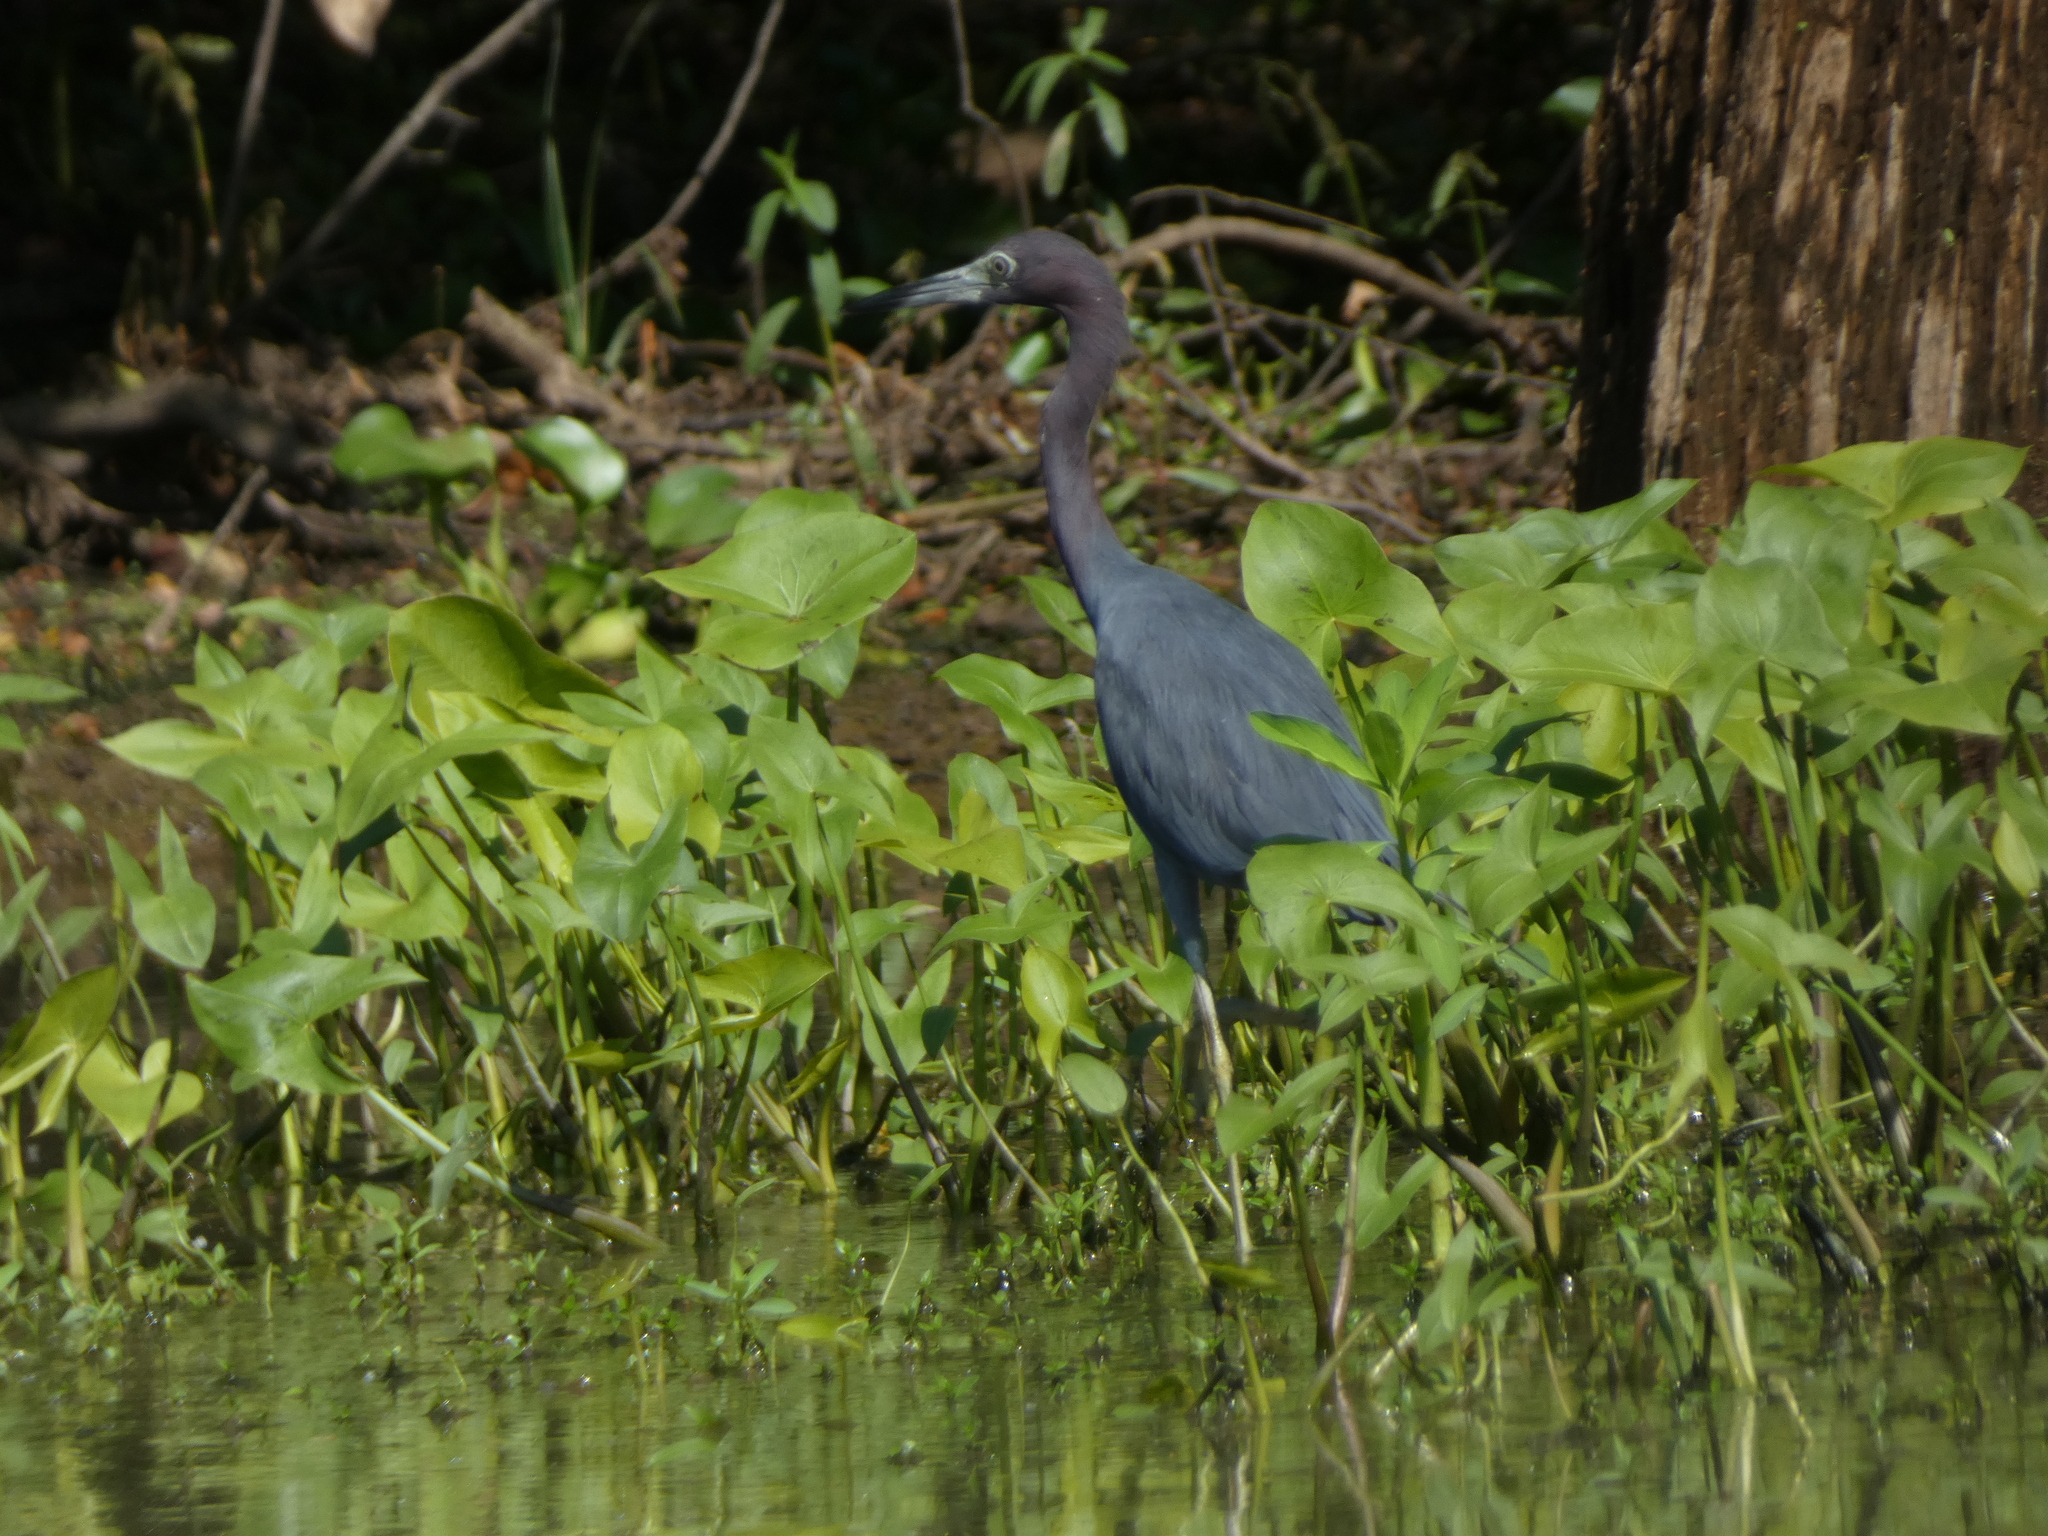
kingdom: Animalia
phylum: Chordata
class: Aves
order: Pelecaniformes
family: Ardeidae
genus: Egretta
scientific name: Egretta caerulea
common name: Little blue heron
